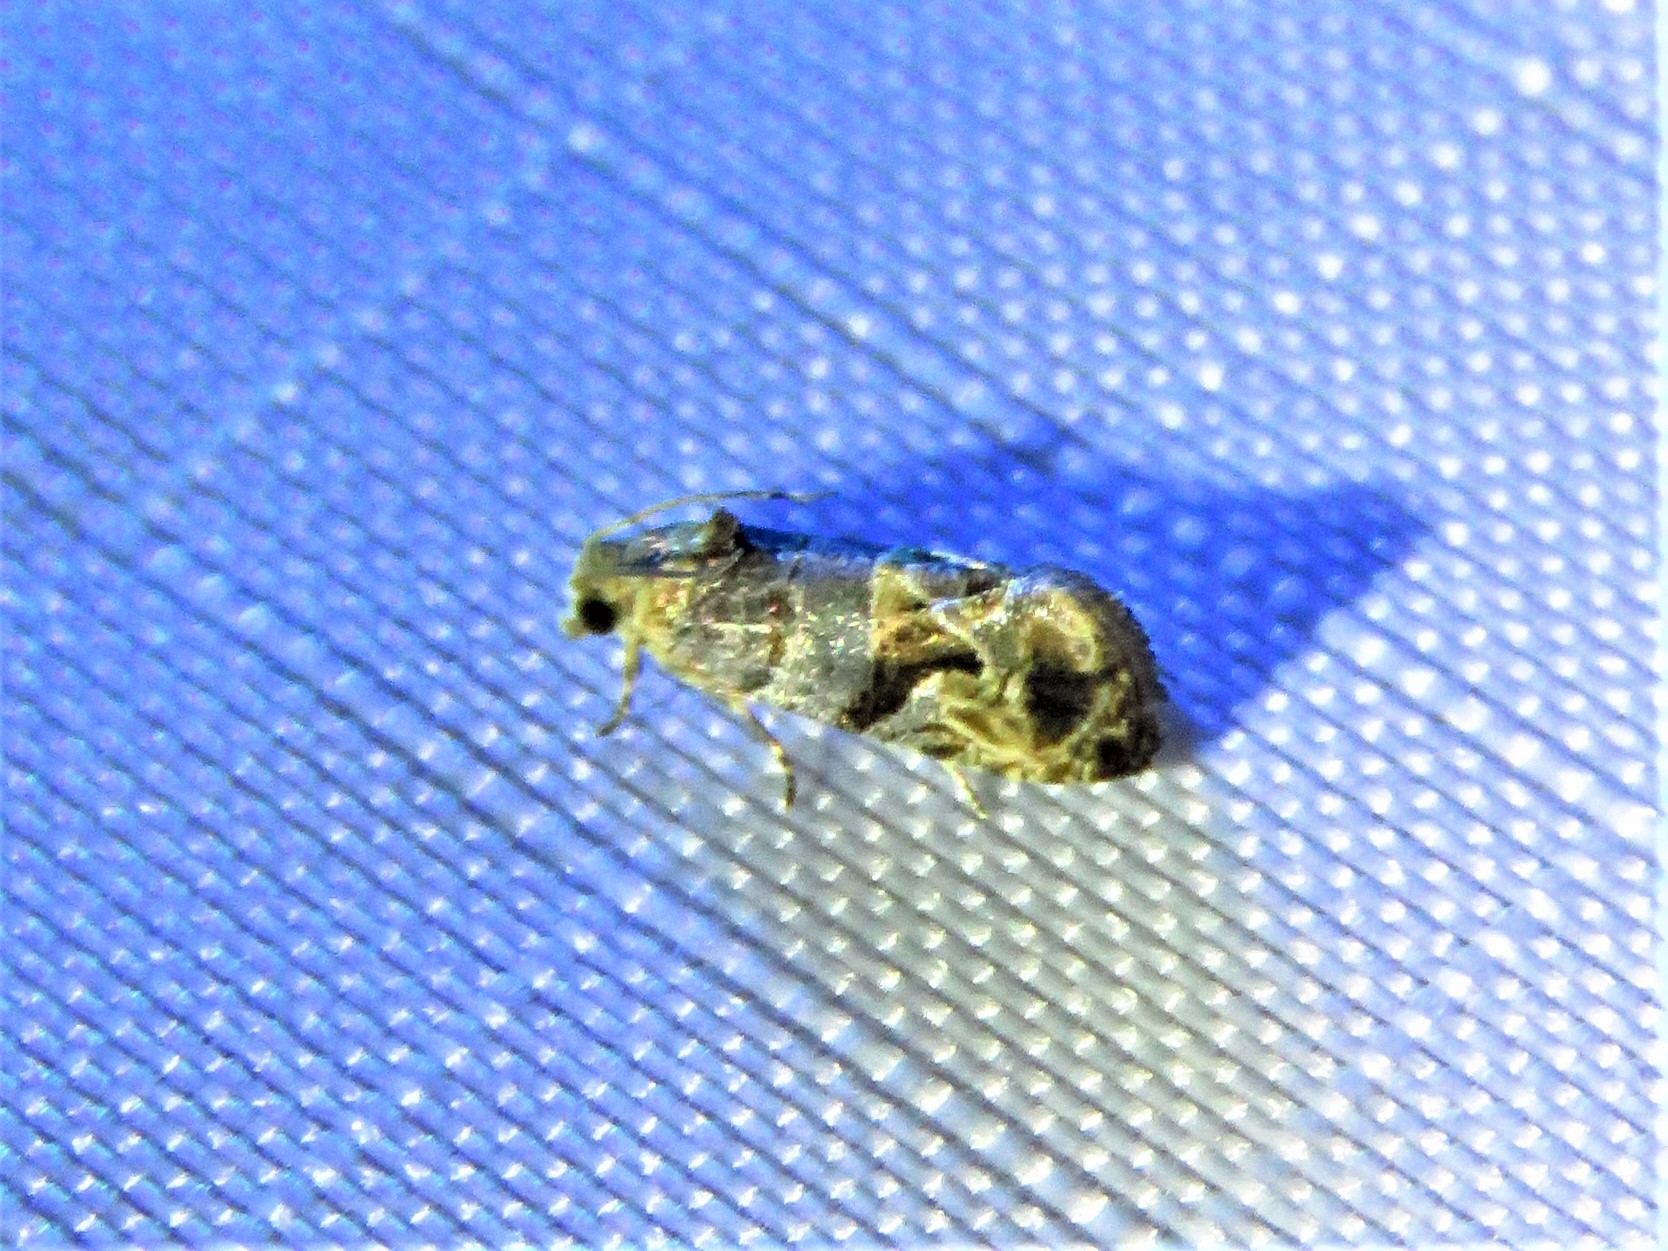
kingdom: Animalia
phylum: Arthropoda
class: Insecta
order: Lepidoptera
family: Tortricidae
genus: Paralobesia
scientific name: Paralobesia viteana
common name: Grape berry moth
